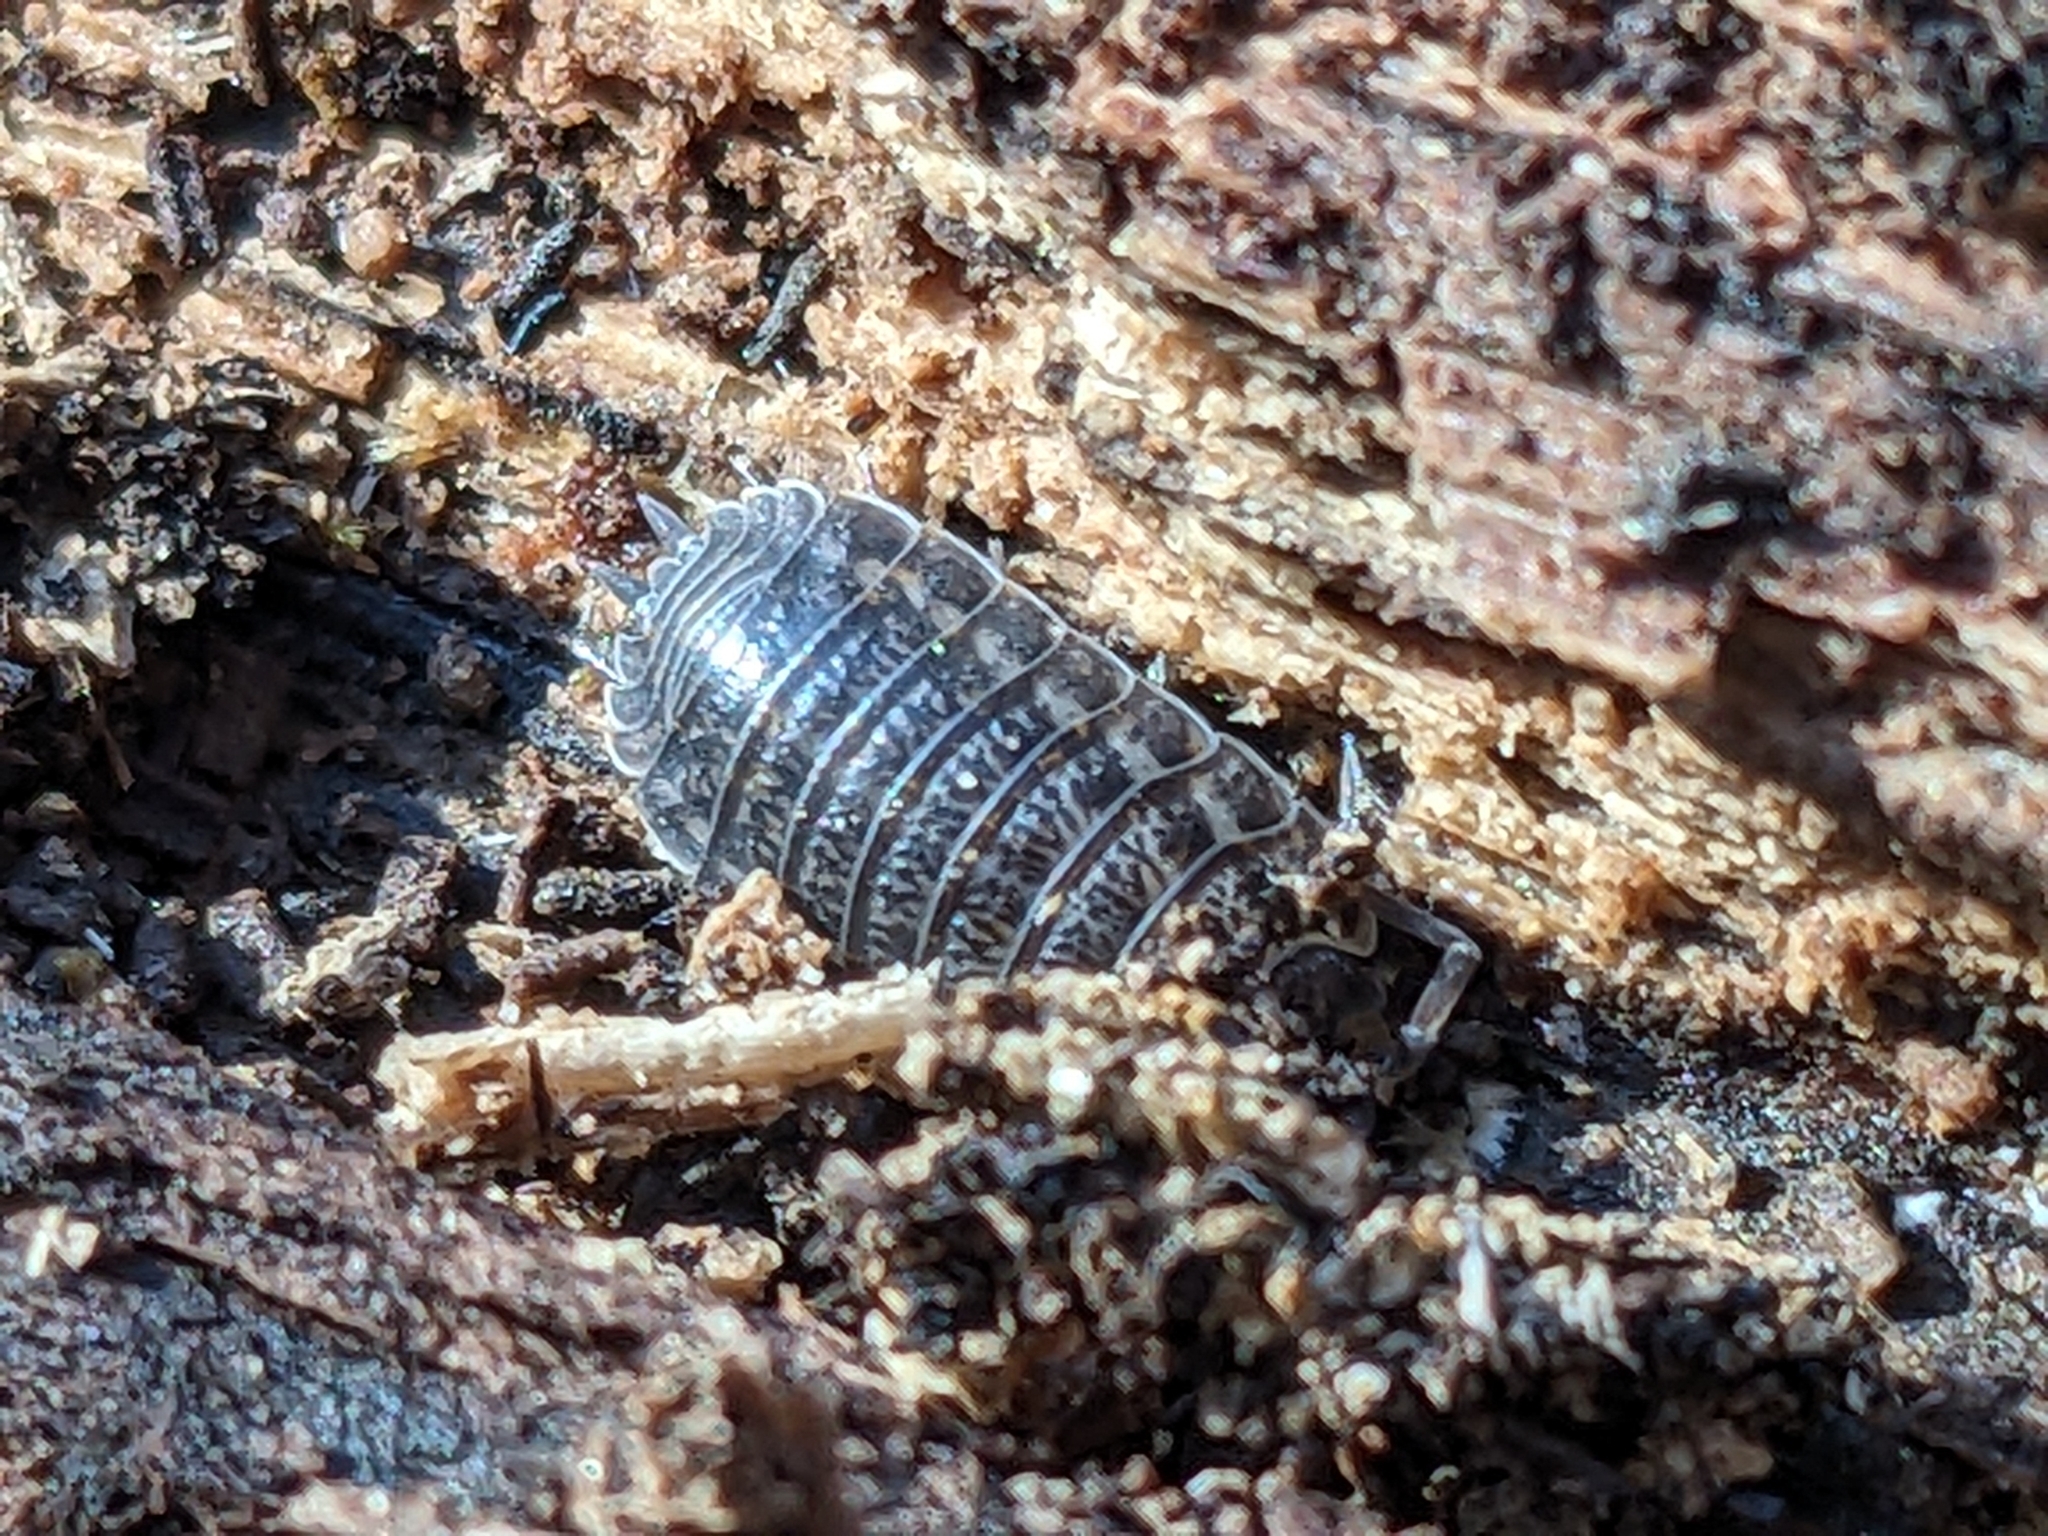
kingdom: Animalia
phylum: Arthropoda
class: Malacostraca
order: Isopoda
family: Trachelipodidae
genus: Trachelipus
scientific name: Trachelipus rathkii
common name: Isopod
